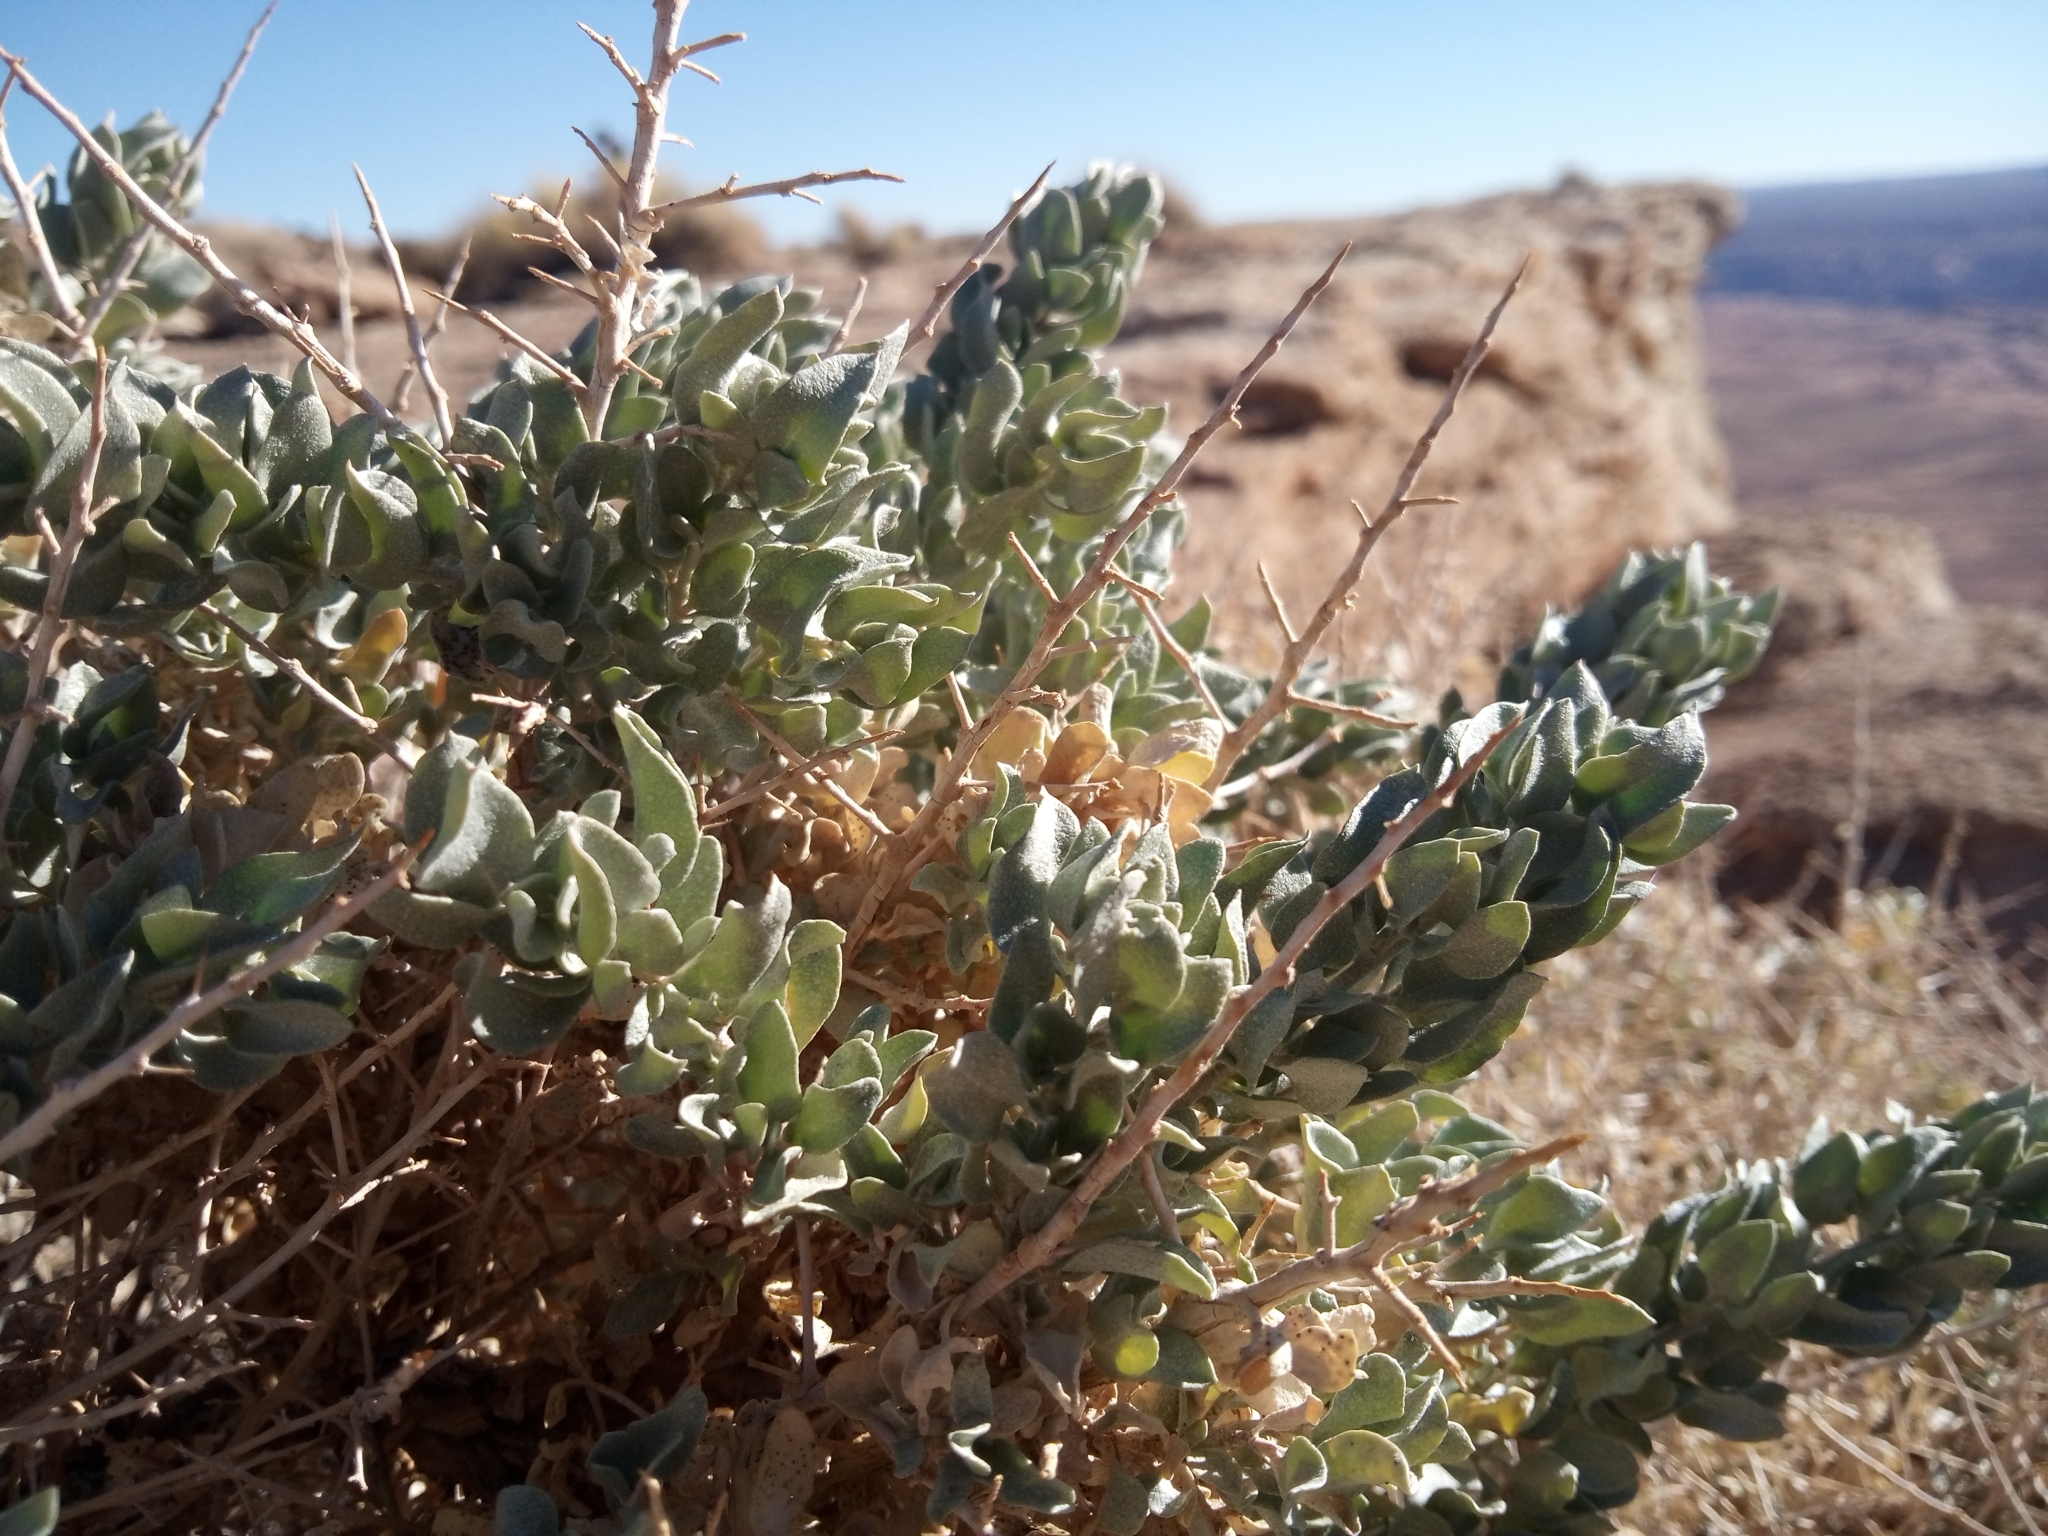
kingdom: Plantae
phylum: Tracheophyta
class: Magnoliopsida
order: Caryophyllales
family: Amaranthaceae
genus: Atriplex
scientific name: Atriplex confertifolia
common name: Shadscale
